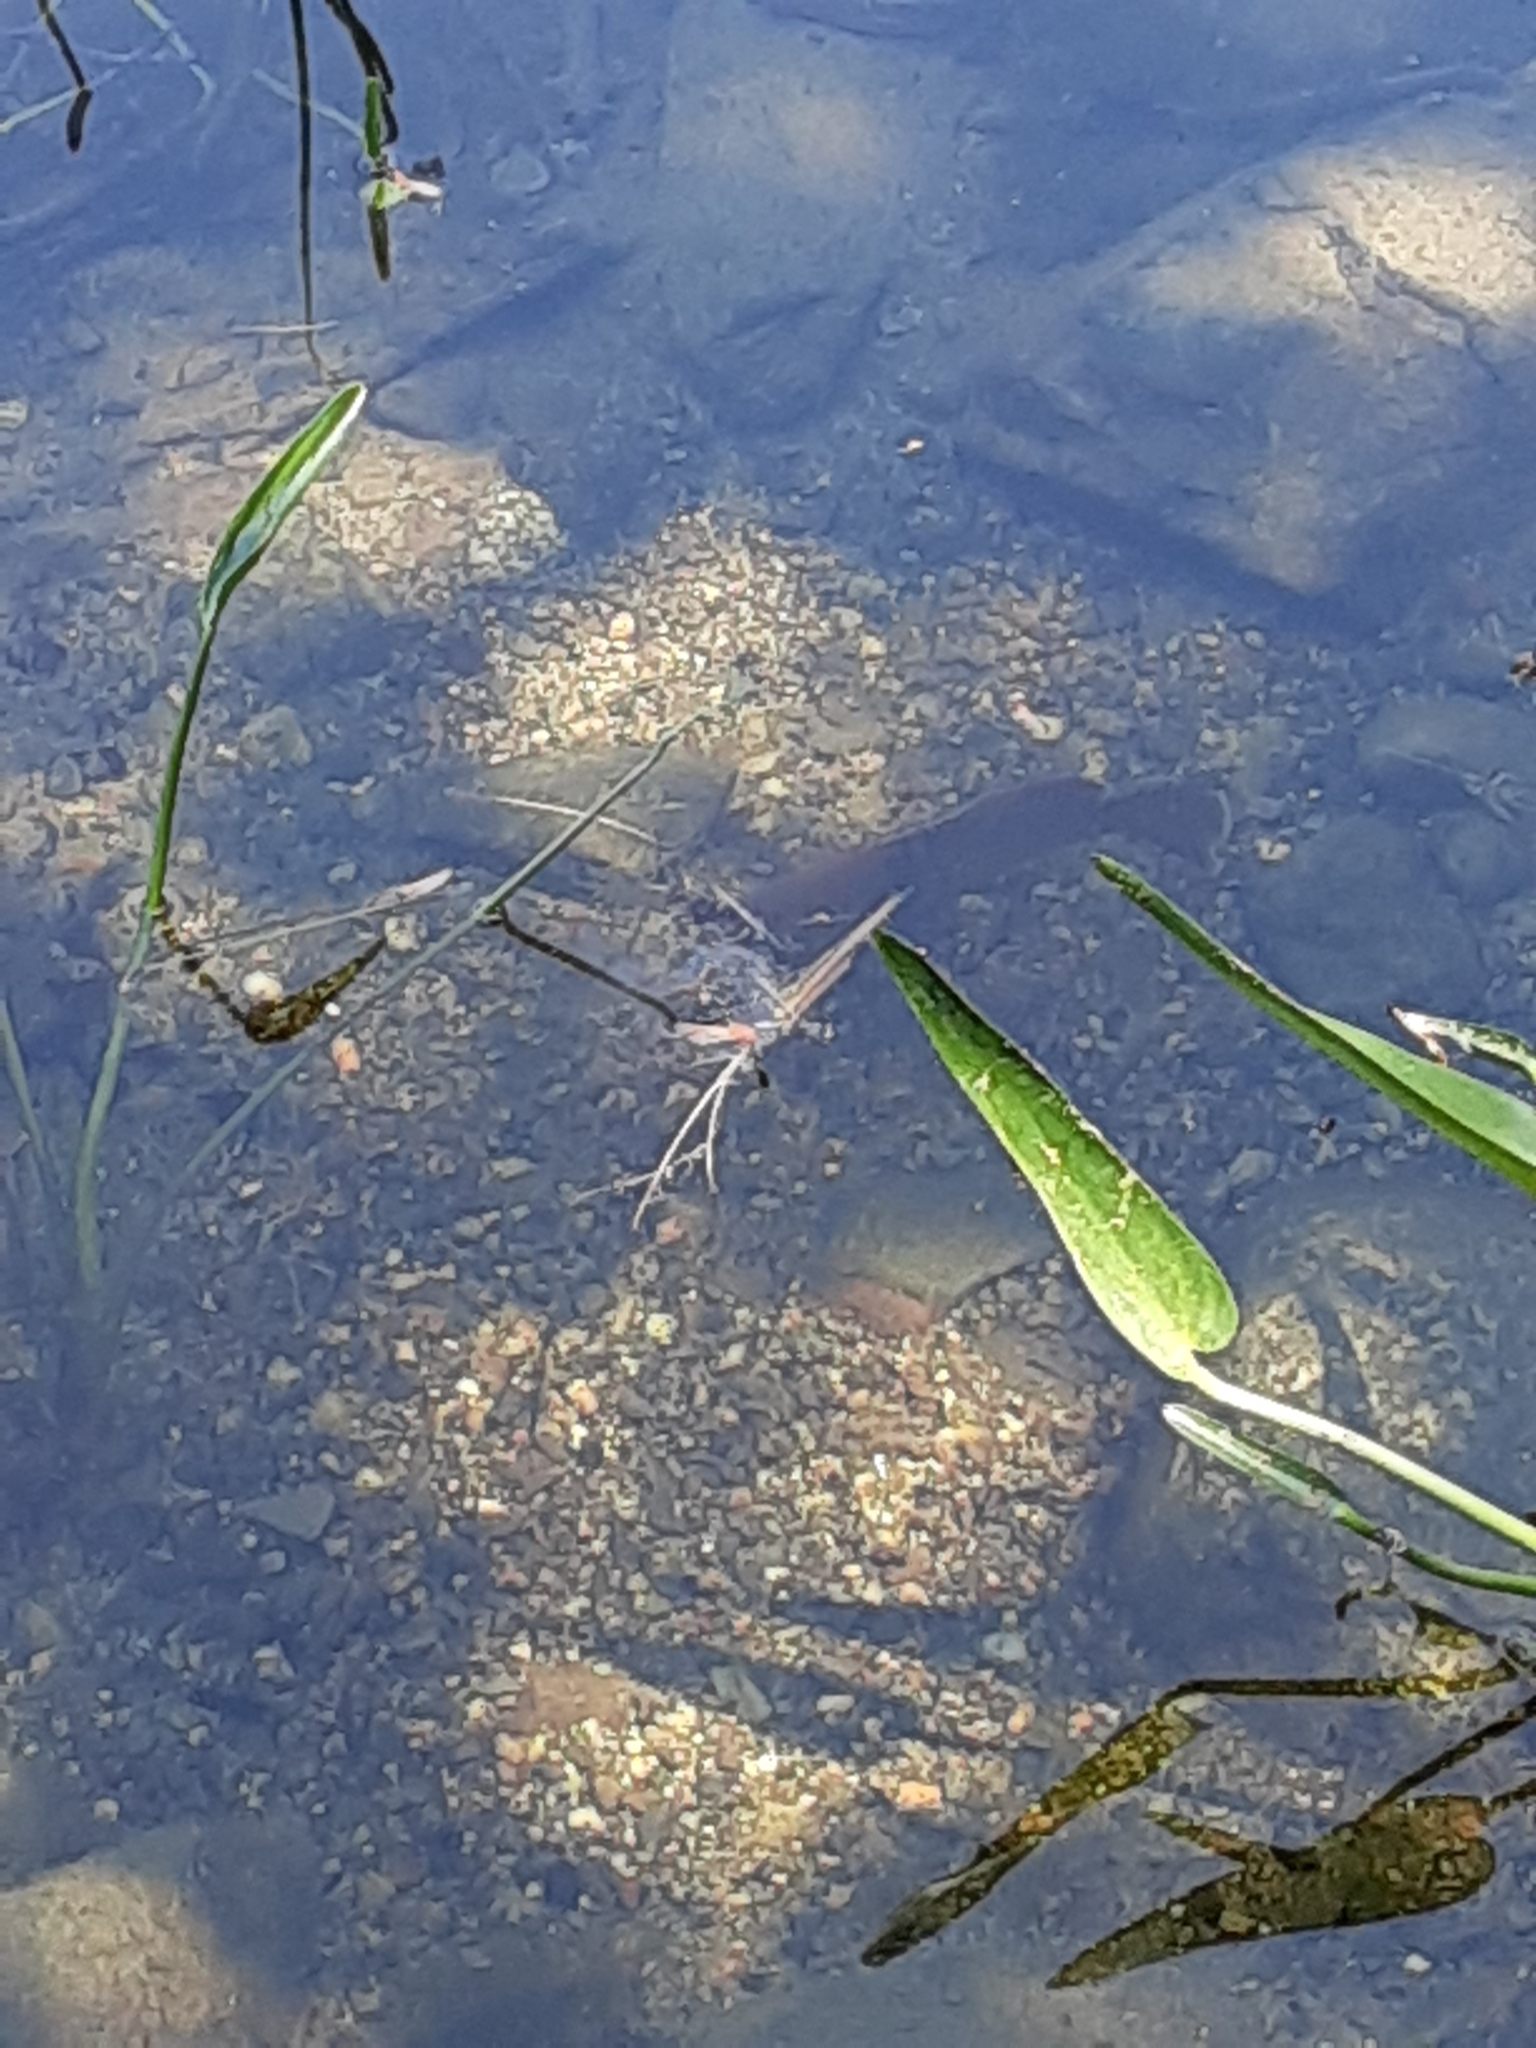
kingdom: Animalia
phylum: Chordata
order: Perciformes
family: Centrarchidae
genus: Lepomis
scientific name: Lepomis auritus
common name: Redbreast sunfish
